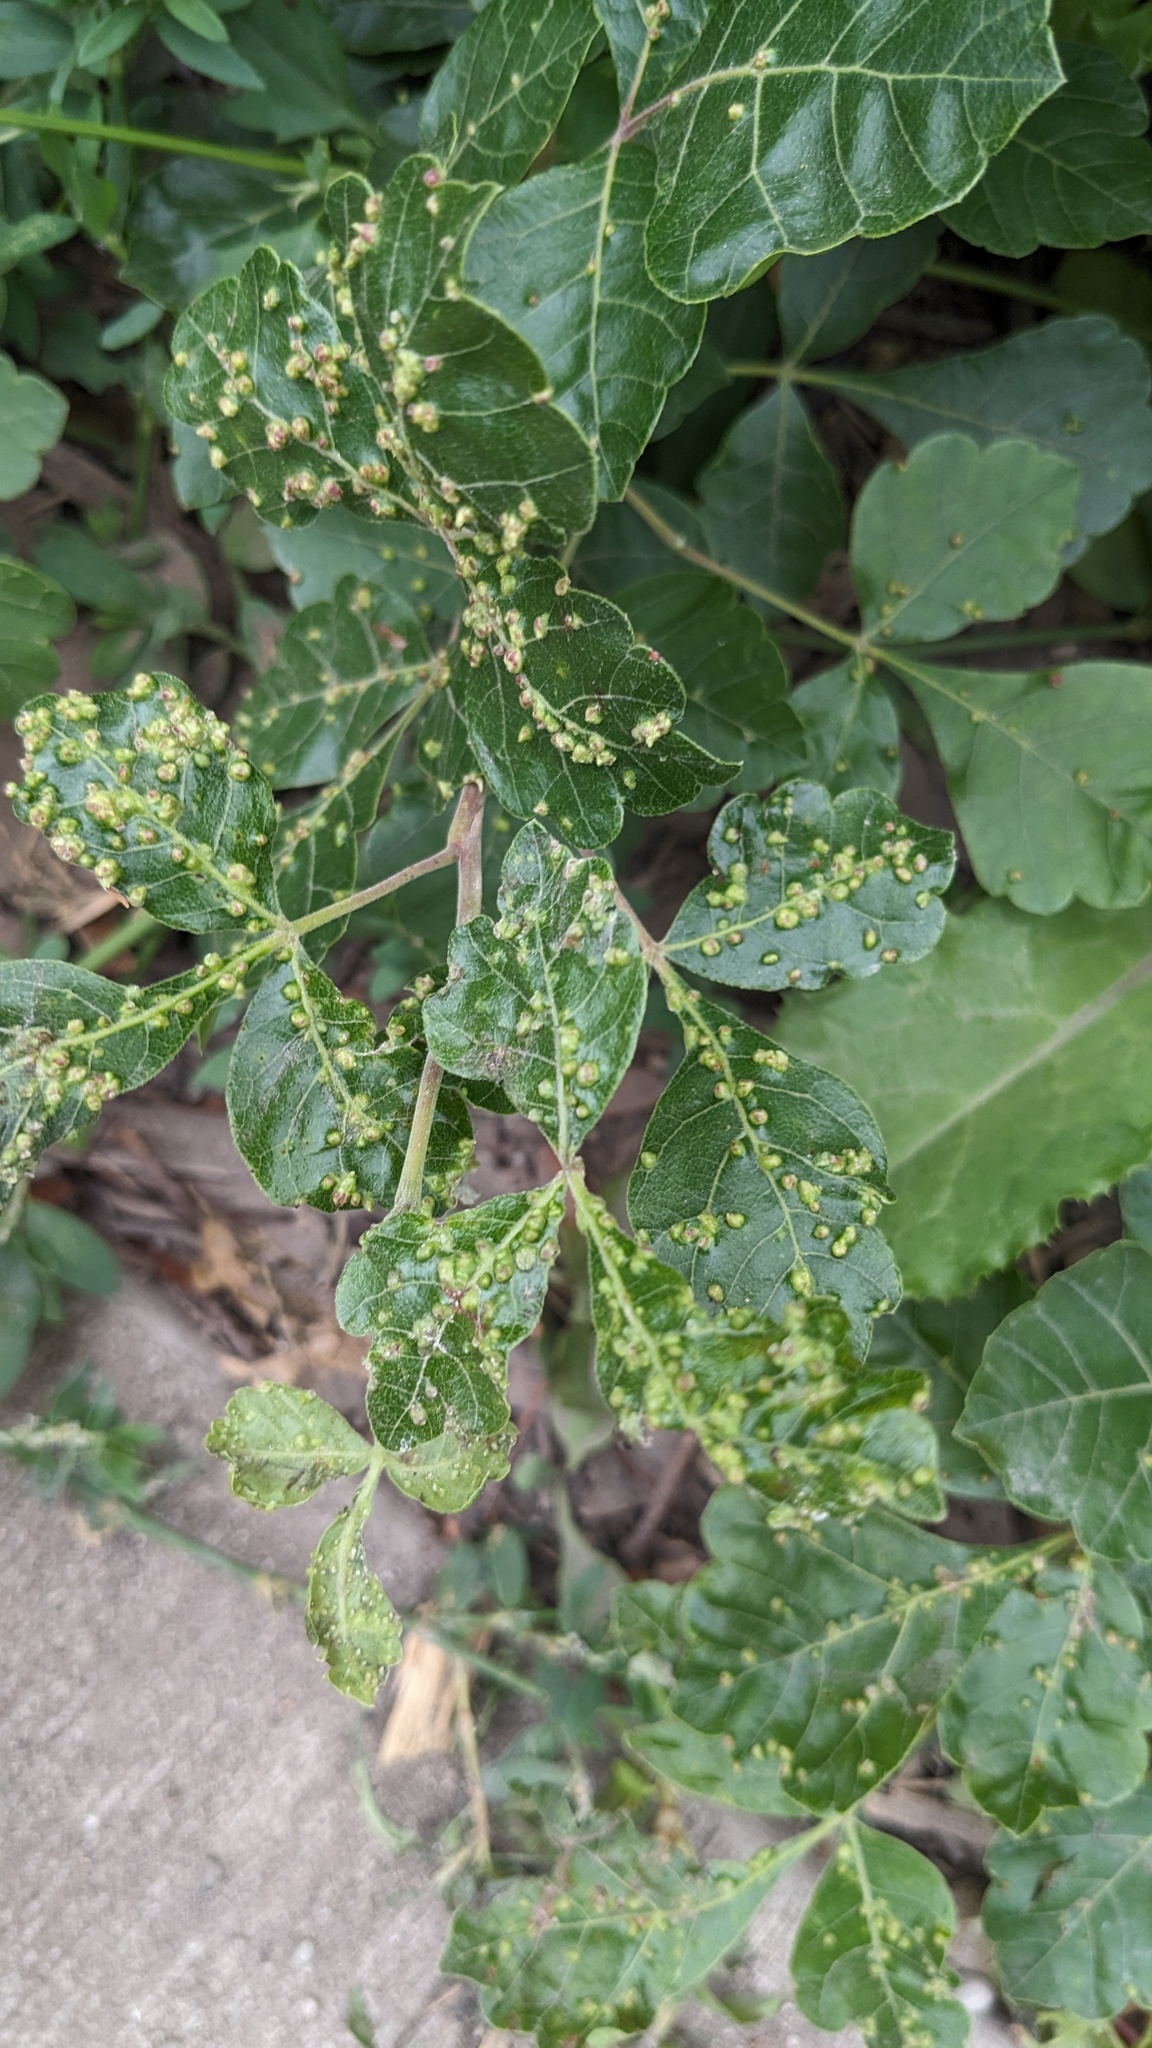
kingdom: Animalia
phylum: Arthropoda
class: Arachnida
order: Trombidiformes
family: Eriophyidae
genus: Aculops
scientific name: Aculops
